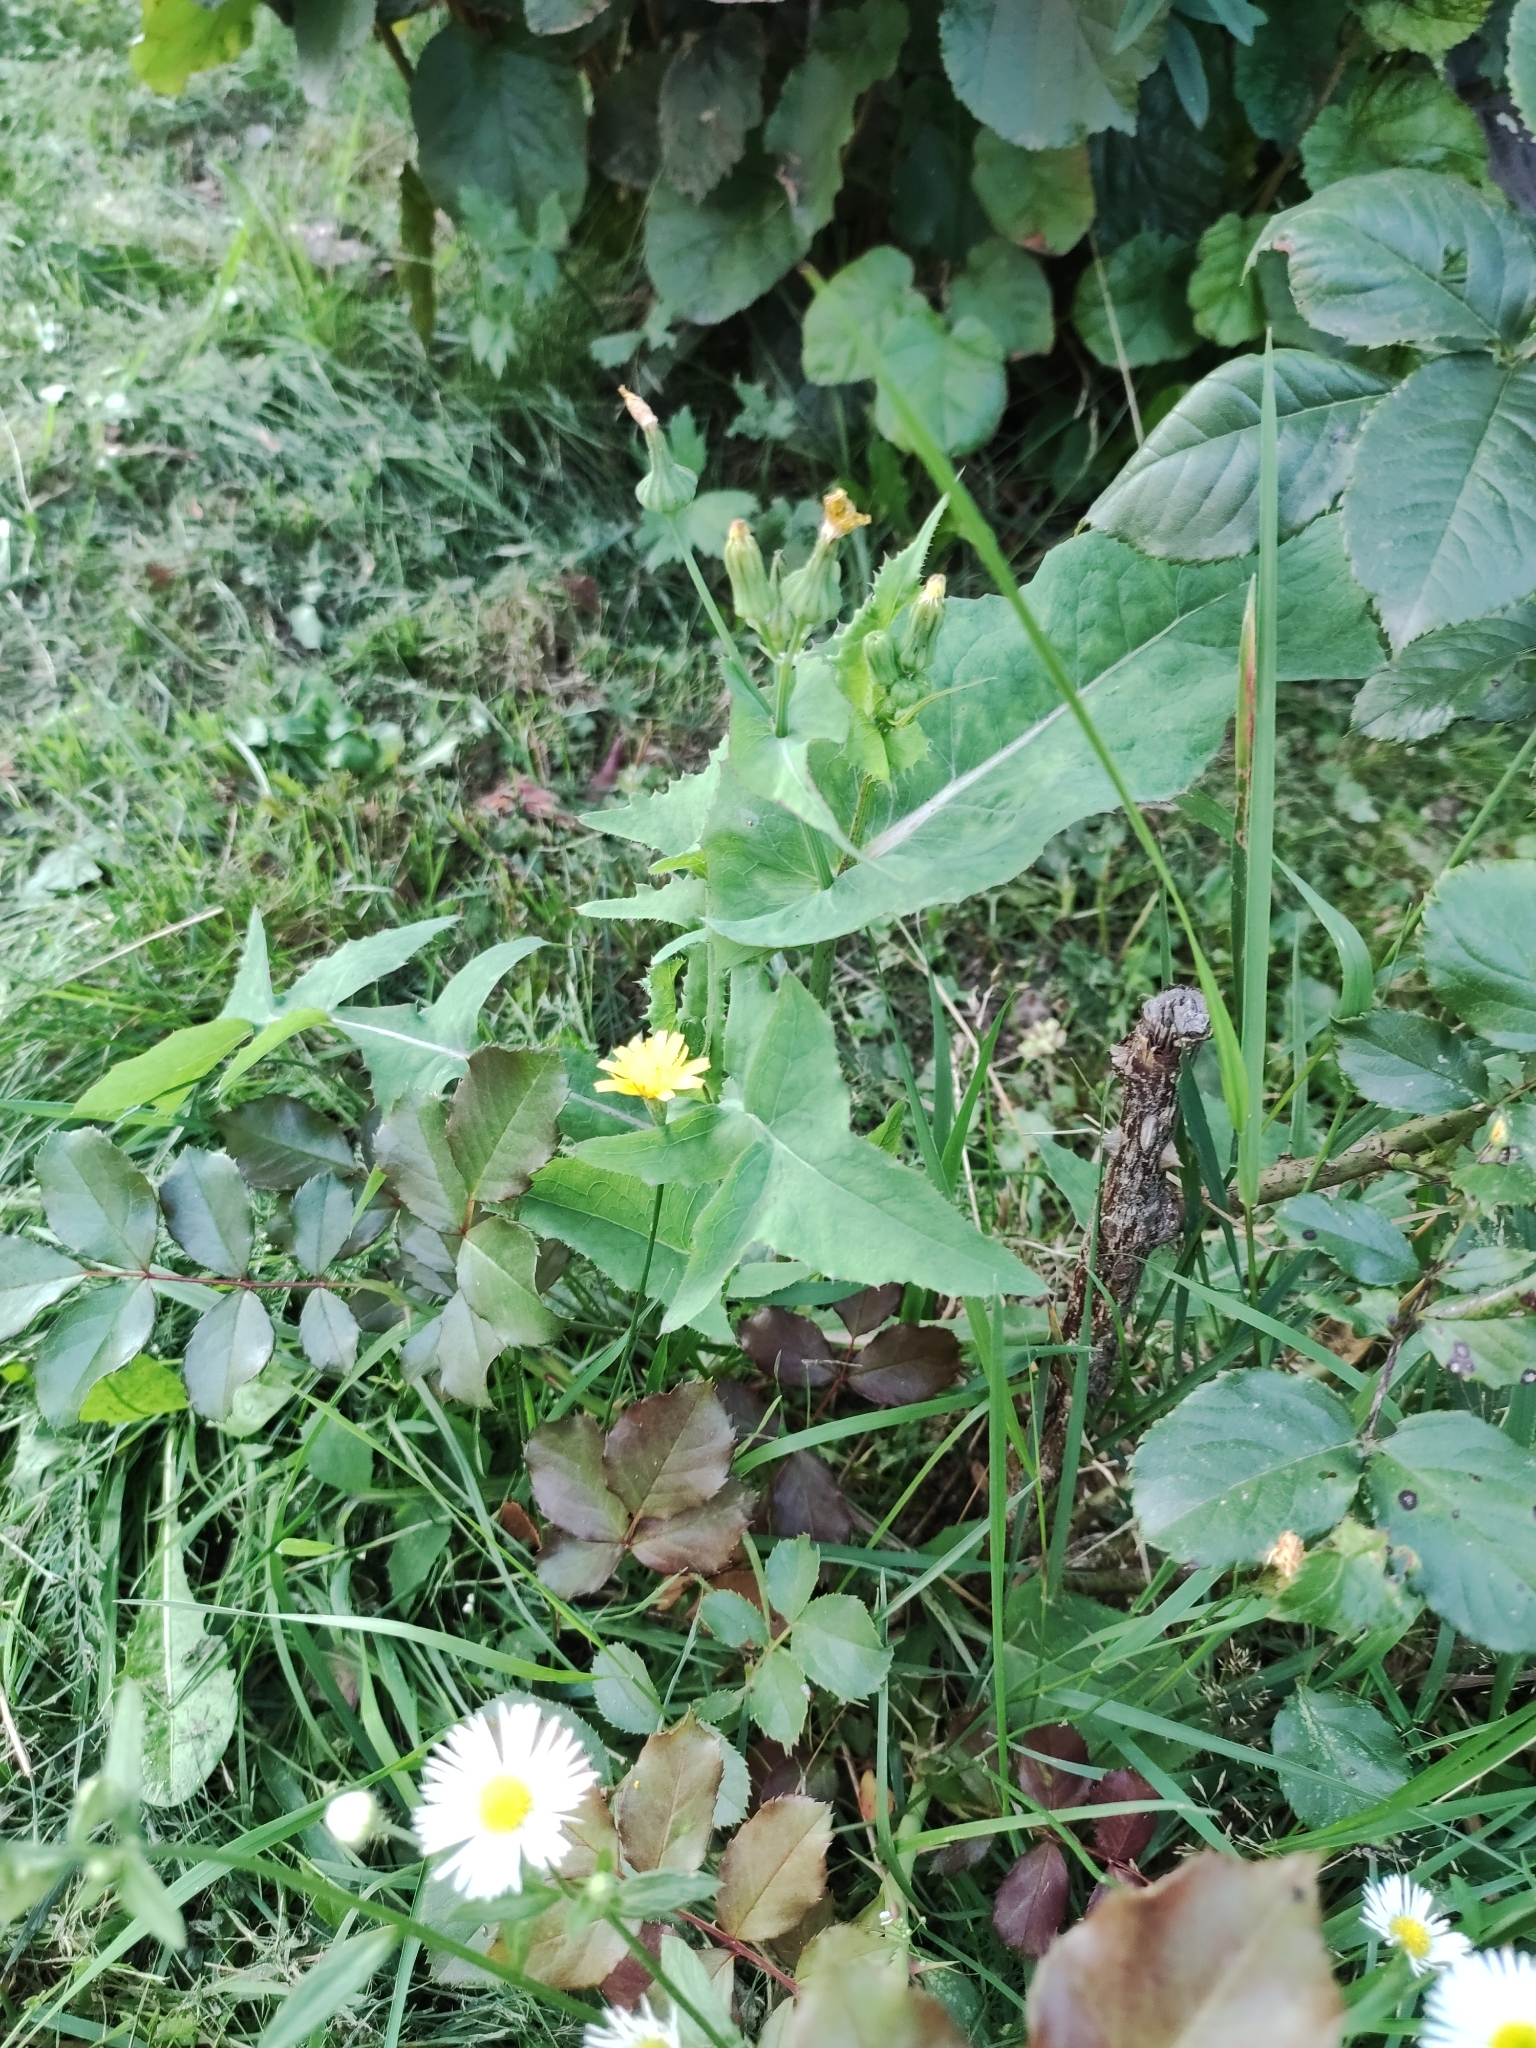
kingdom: Plantae
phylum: Tracheophyta
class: Magnoliopsida
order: Asterales
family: Asteraceae
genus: Sonchus
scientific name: Sonchus oleraceus
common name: Common sowthistle
